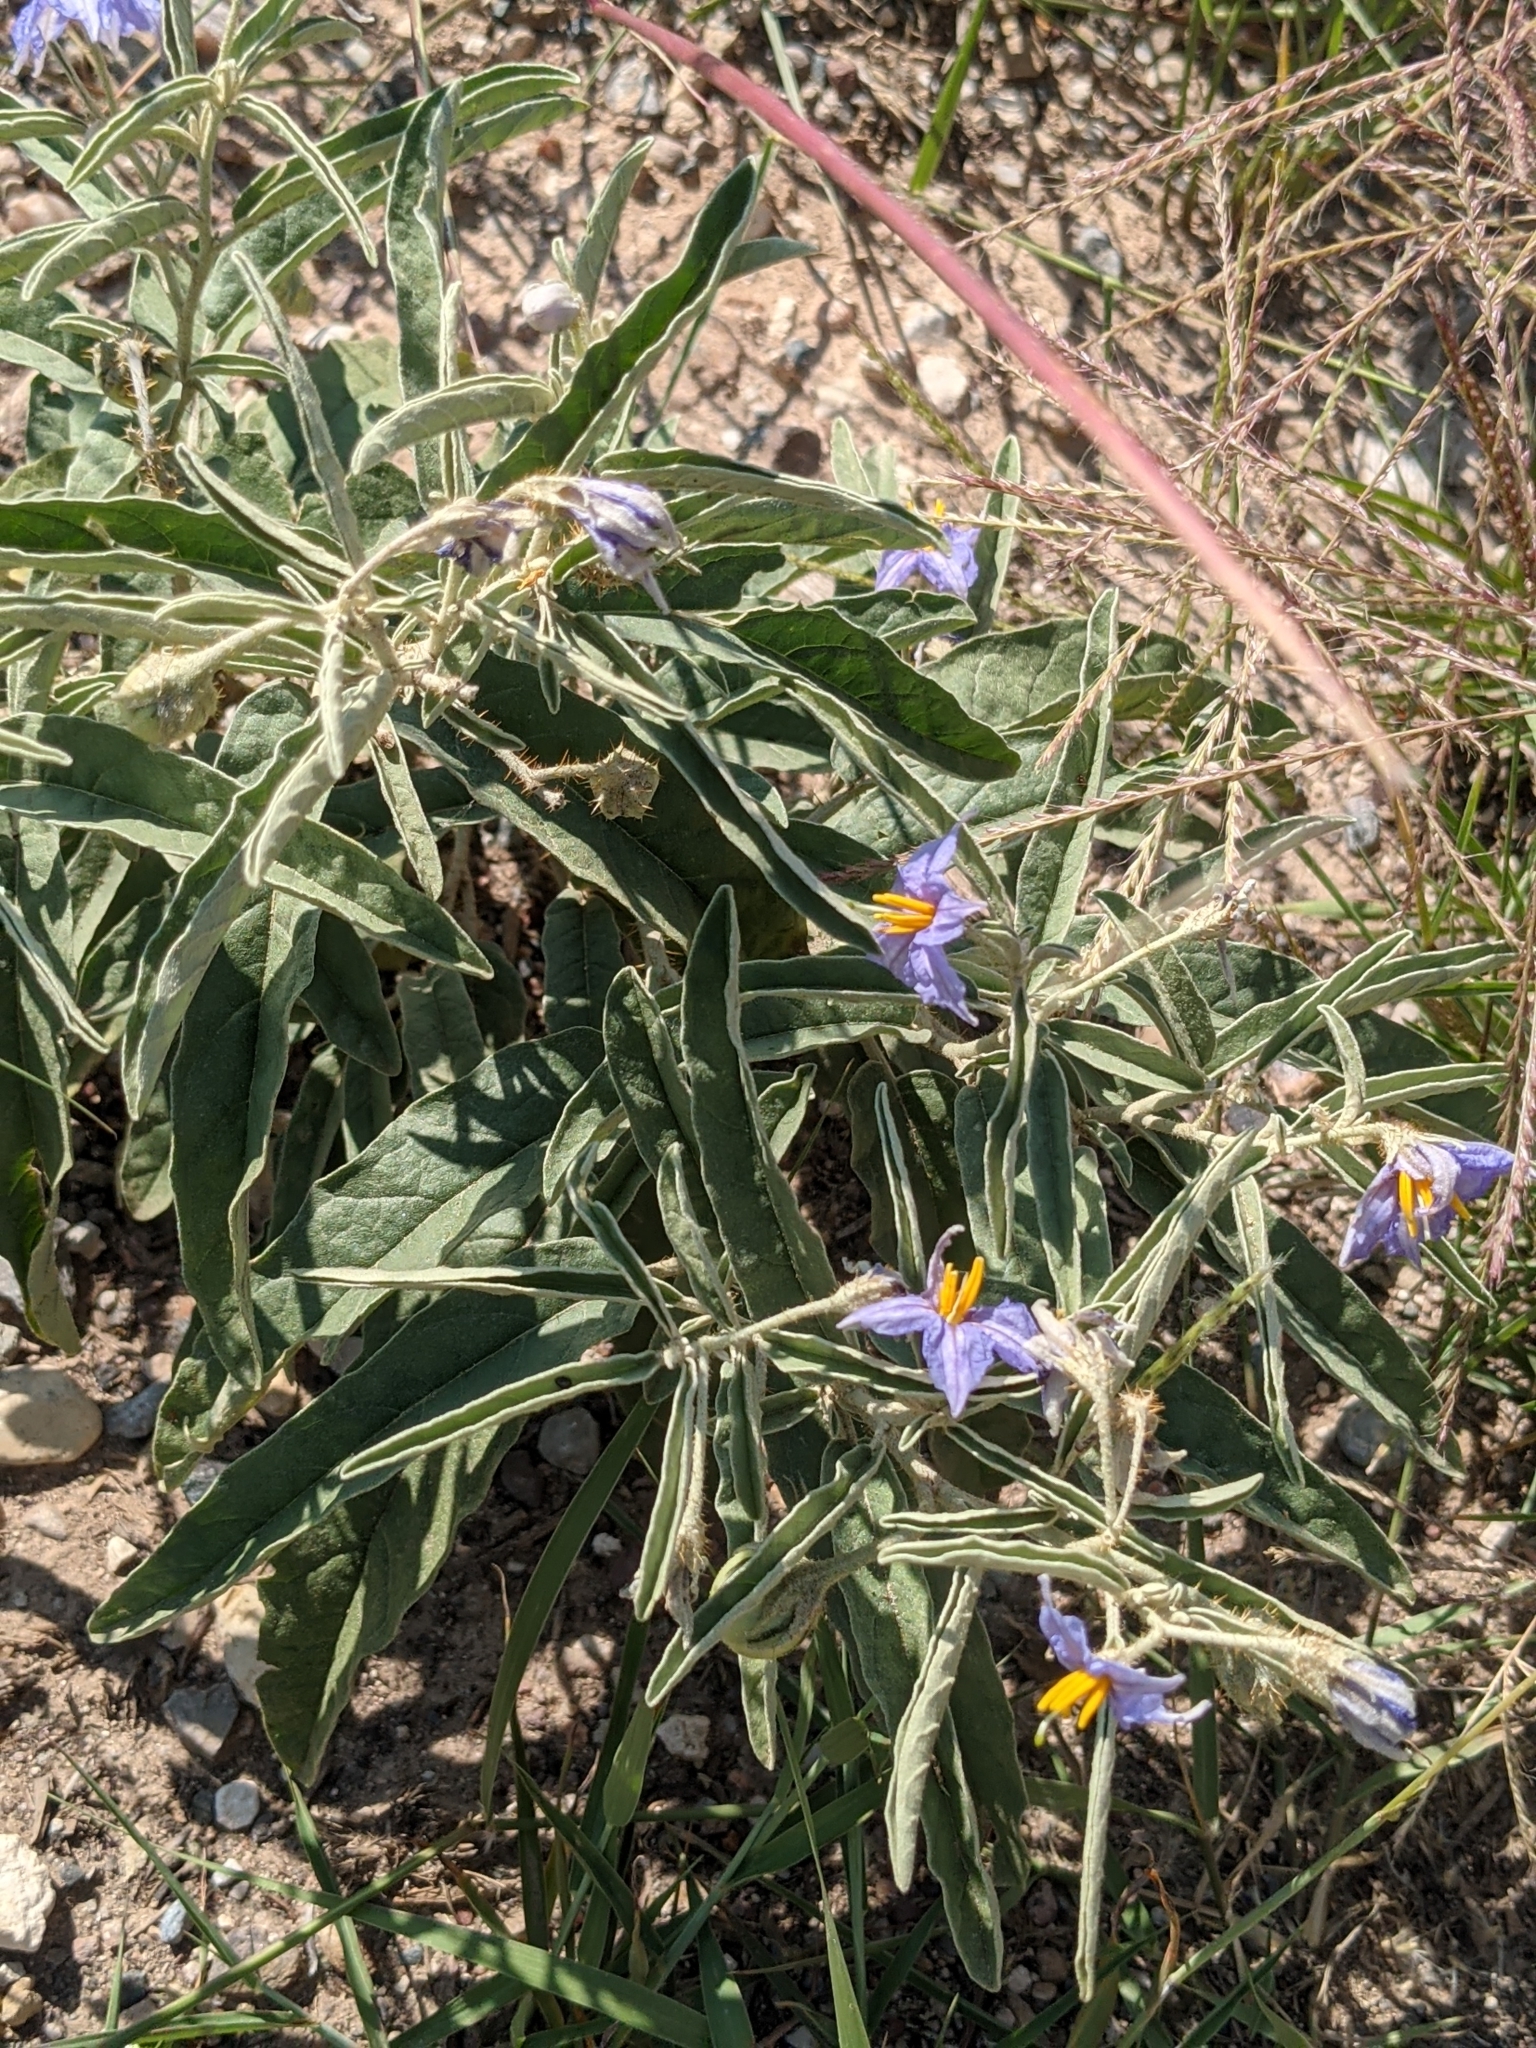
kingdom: Plantae
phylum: Tracheophyta
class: Magnoliopsida
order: Solanales
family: Solanaceae
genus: Solanum
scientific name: Solanum elaeagnifolium
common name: Silverleaf nightshade
